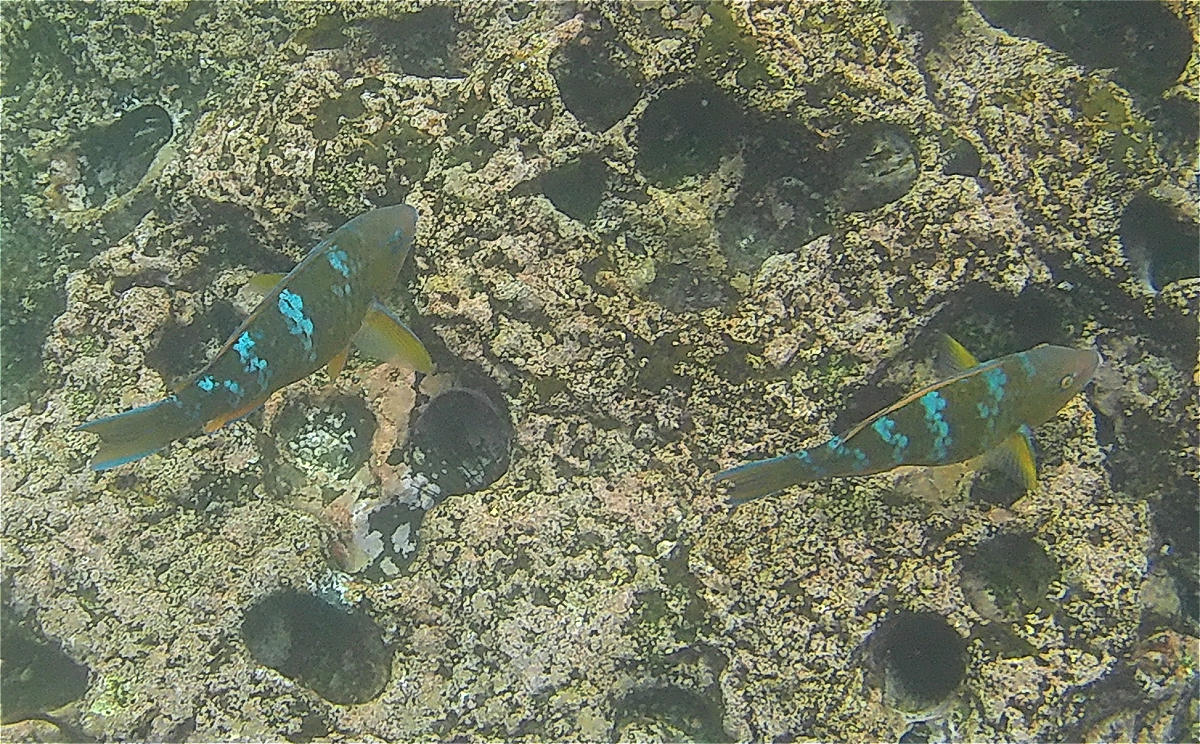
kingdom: Animalia
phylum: Chordata
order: Perciformes
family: Scaridae
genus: Scarus
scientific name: Scarus ghobban
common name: Blue-barred parrotfish
